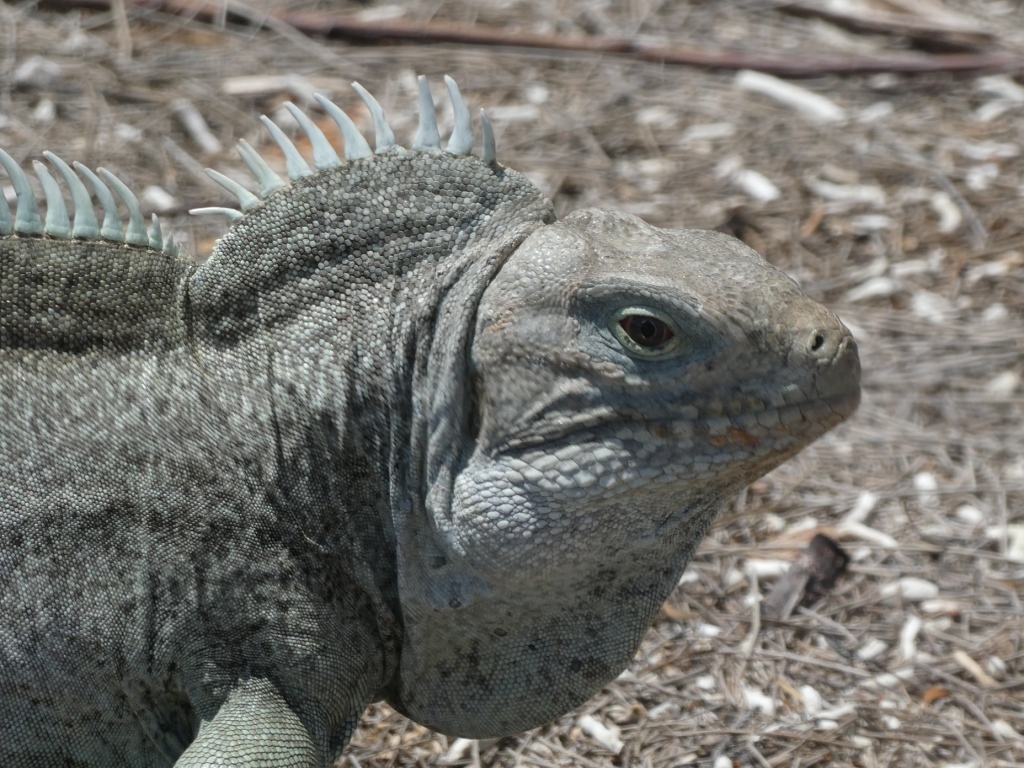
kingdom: Animalia
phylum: Chordata
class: Squamata
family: Iguanidae
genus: Cyclura
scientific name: Cyclura carinata
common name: Turks island iguana
